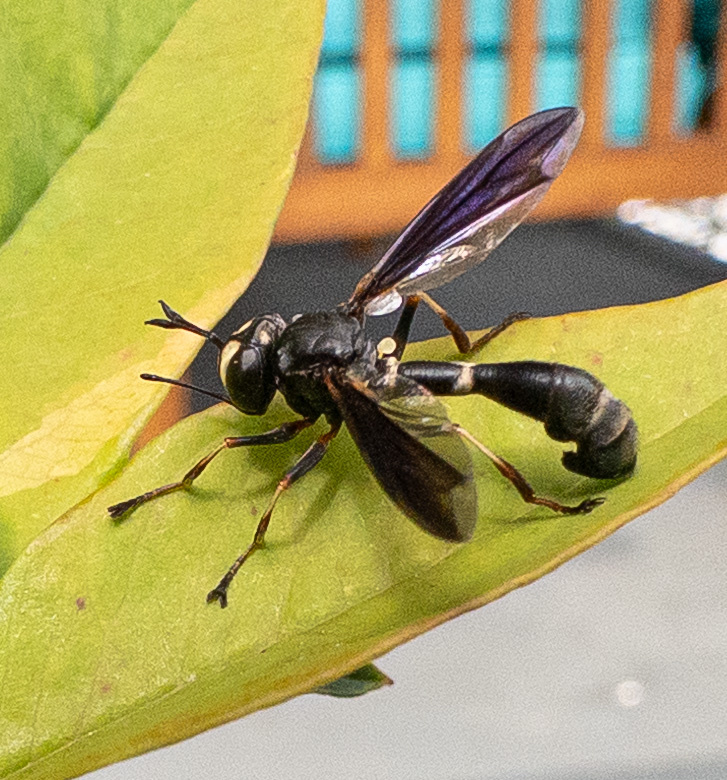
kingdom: Animalia
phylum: Arthropoda
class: Insecta
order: Diptera
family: Conopidae
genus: Physocephala
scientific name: Physocephala tibialis
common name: Common eastern physocephala
